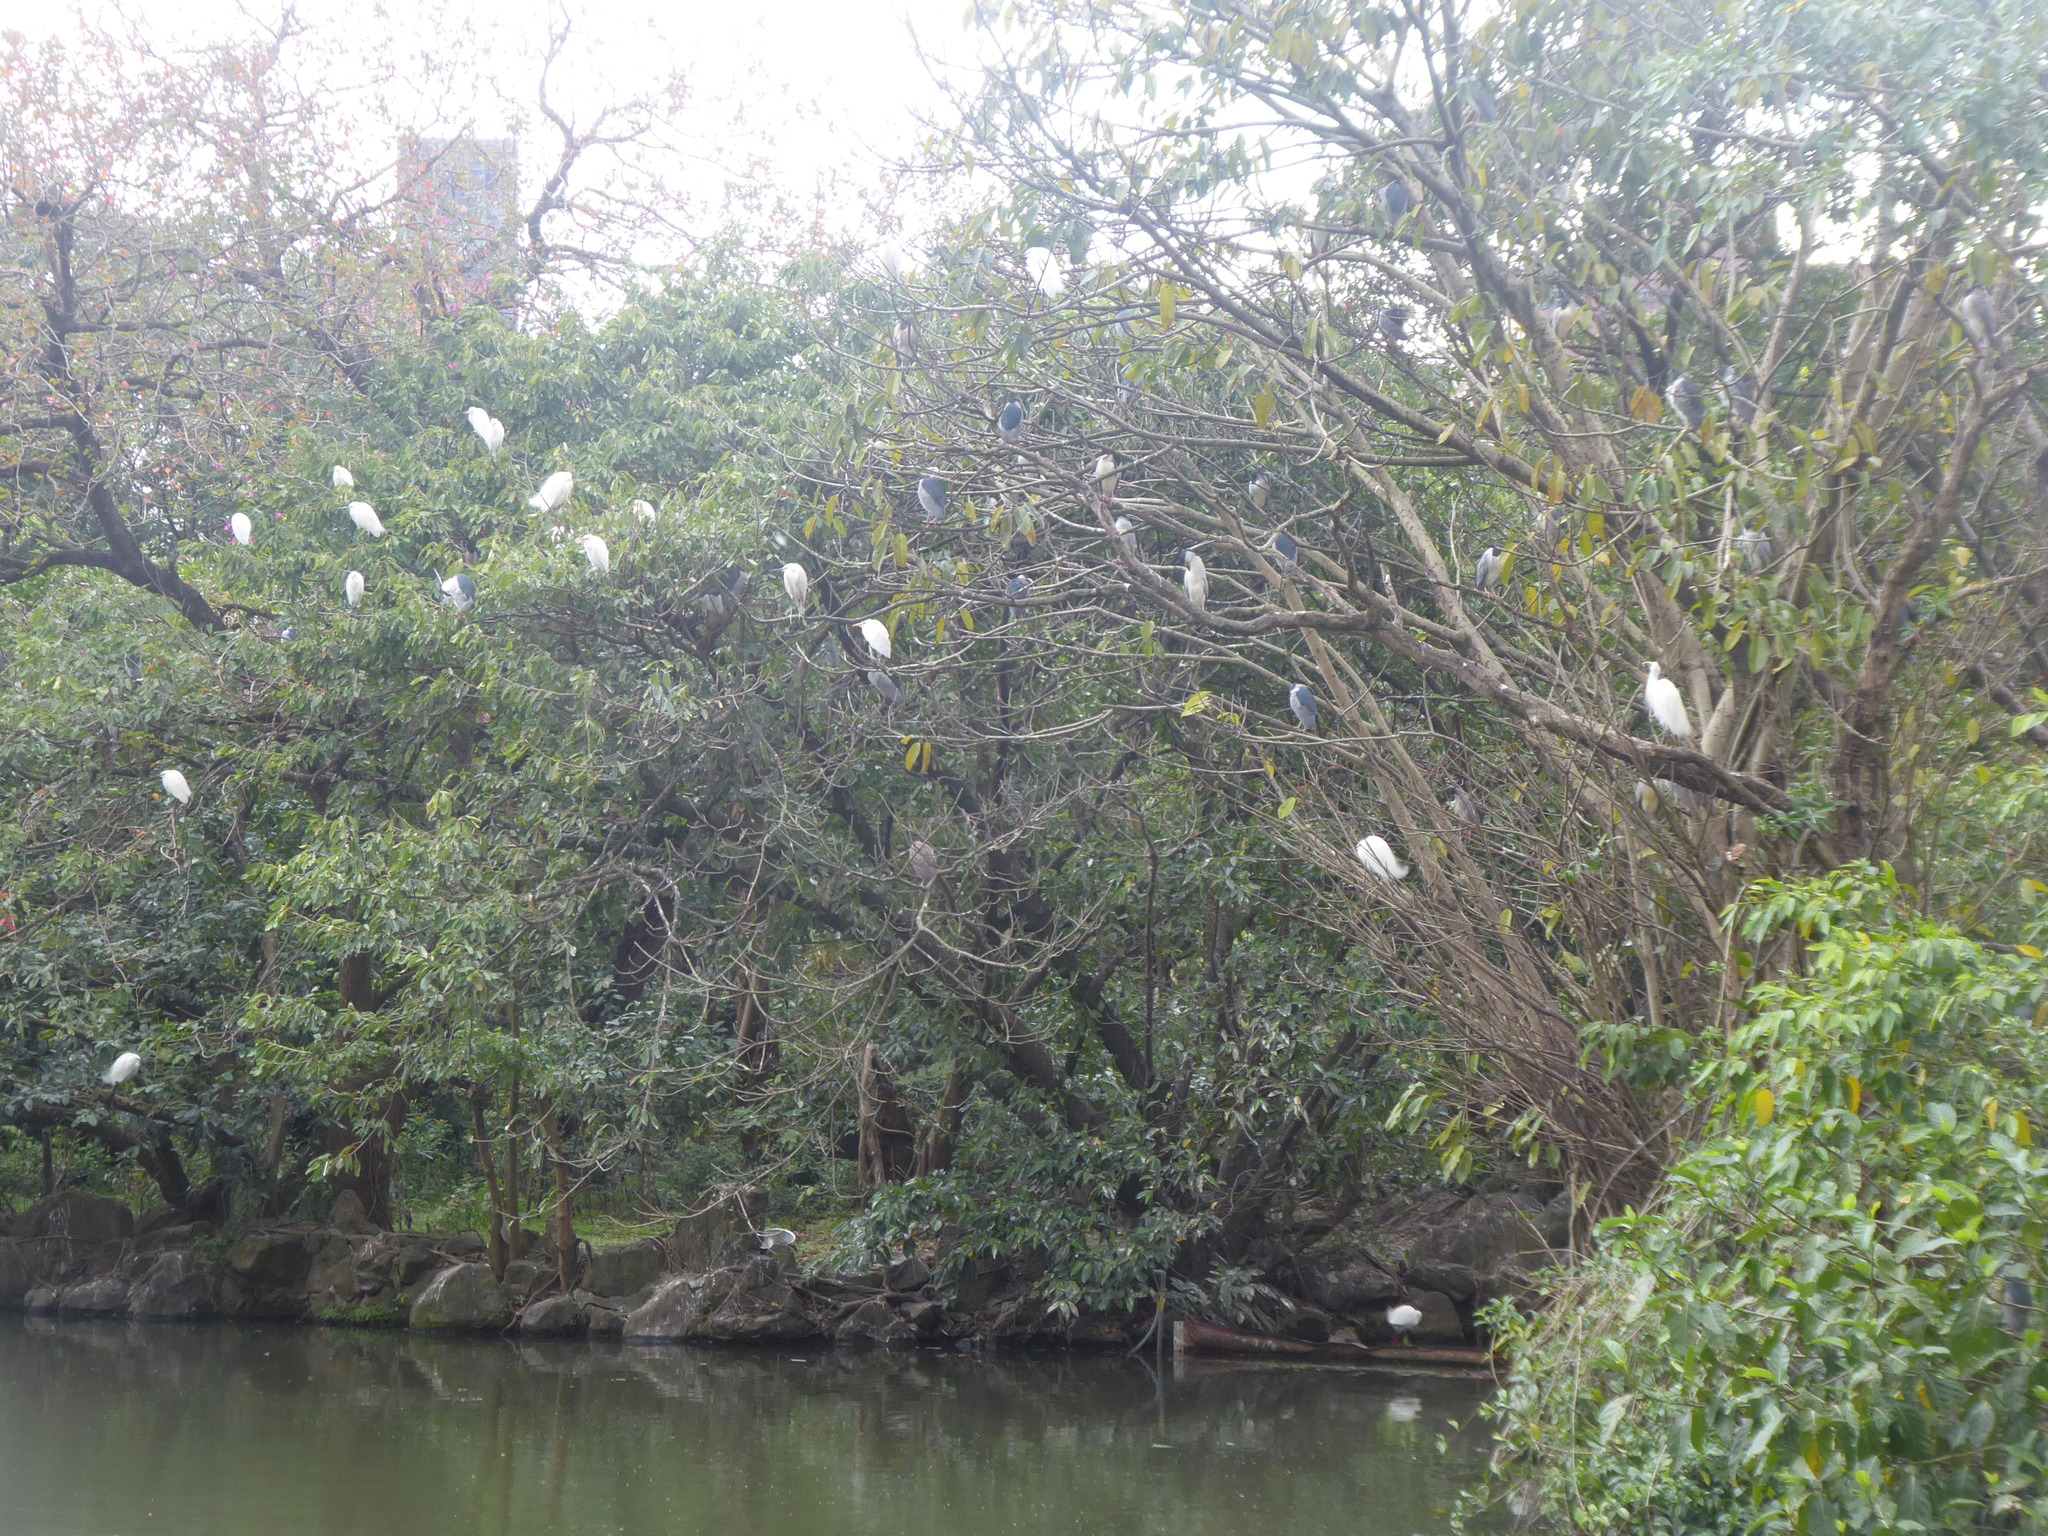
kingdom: Animalia
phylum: Chordata
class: Aves
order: Pelecaniformes
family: Ardeidae
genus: Bubulcus
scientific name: Bubulcus coromandus
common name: Eastern cattle egret
